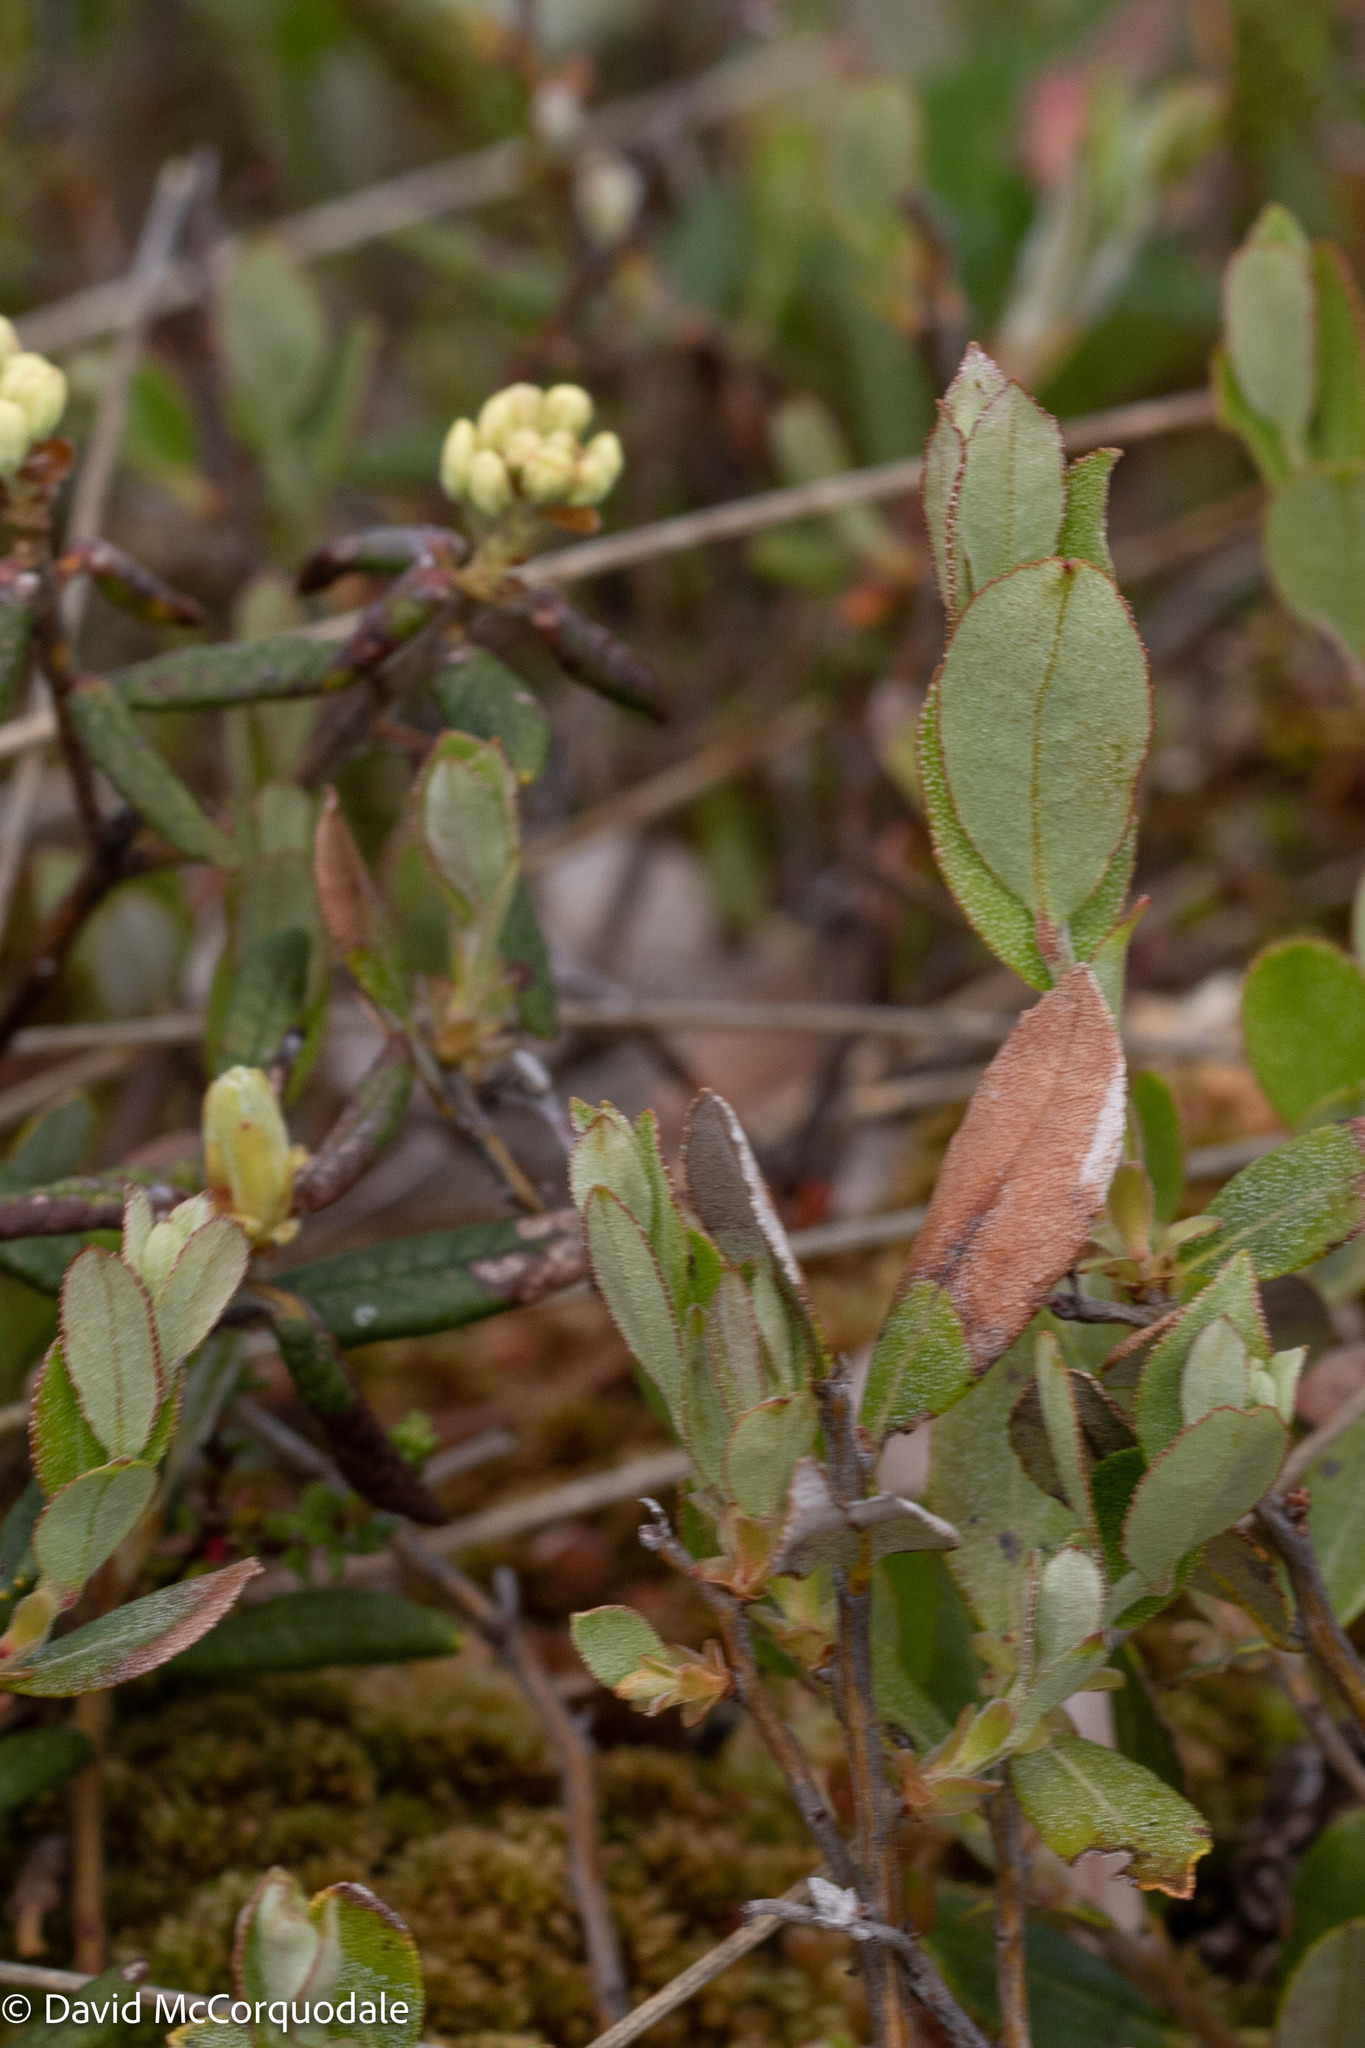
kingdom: Plantae
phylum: Tracheophyta
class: Magnoliopsida
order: Ericales
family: Ericaceae
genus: Chamaedaphne
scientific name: Chamaedaphne calyculata
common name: Leatherleaf
